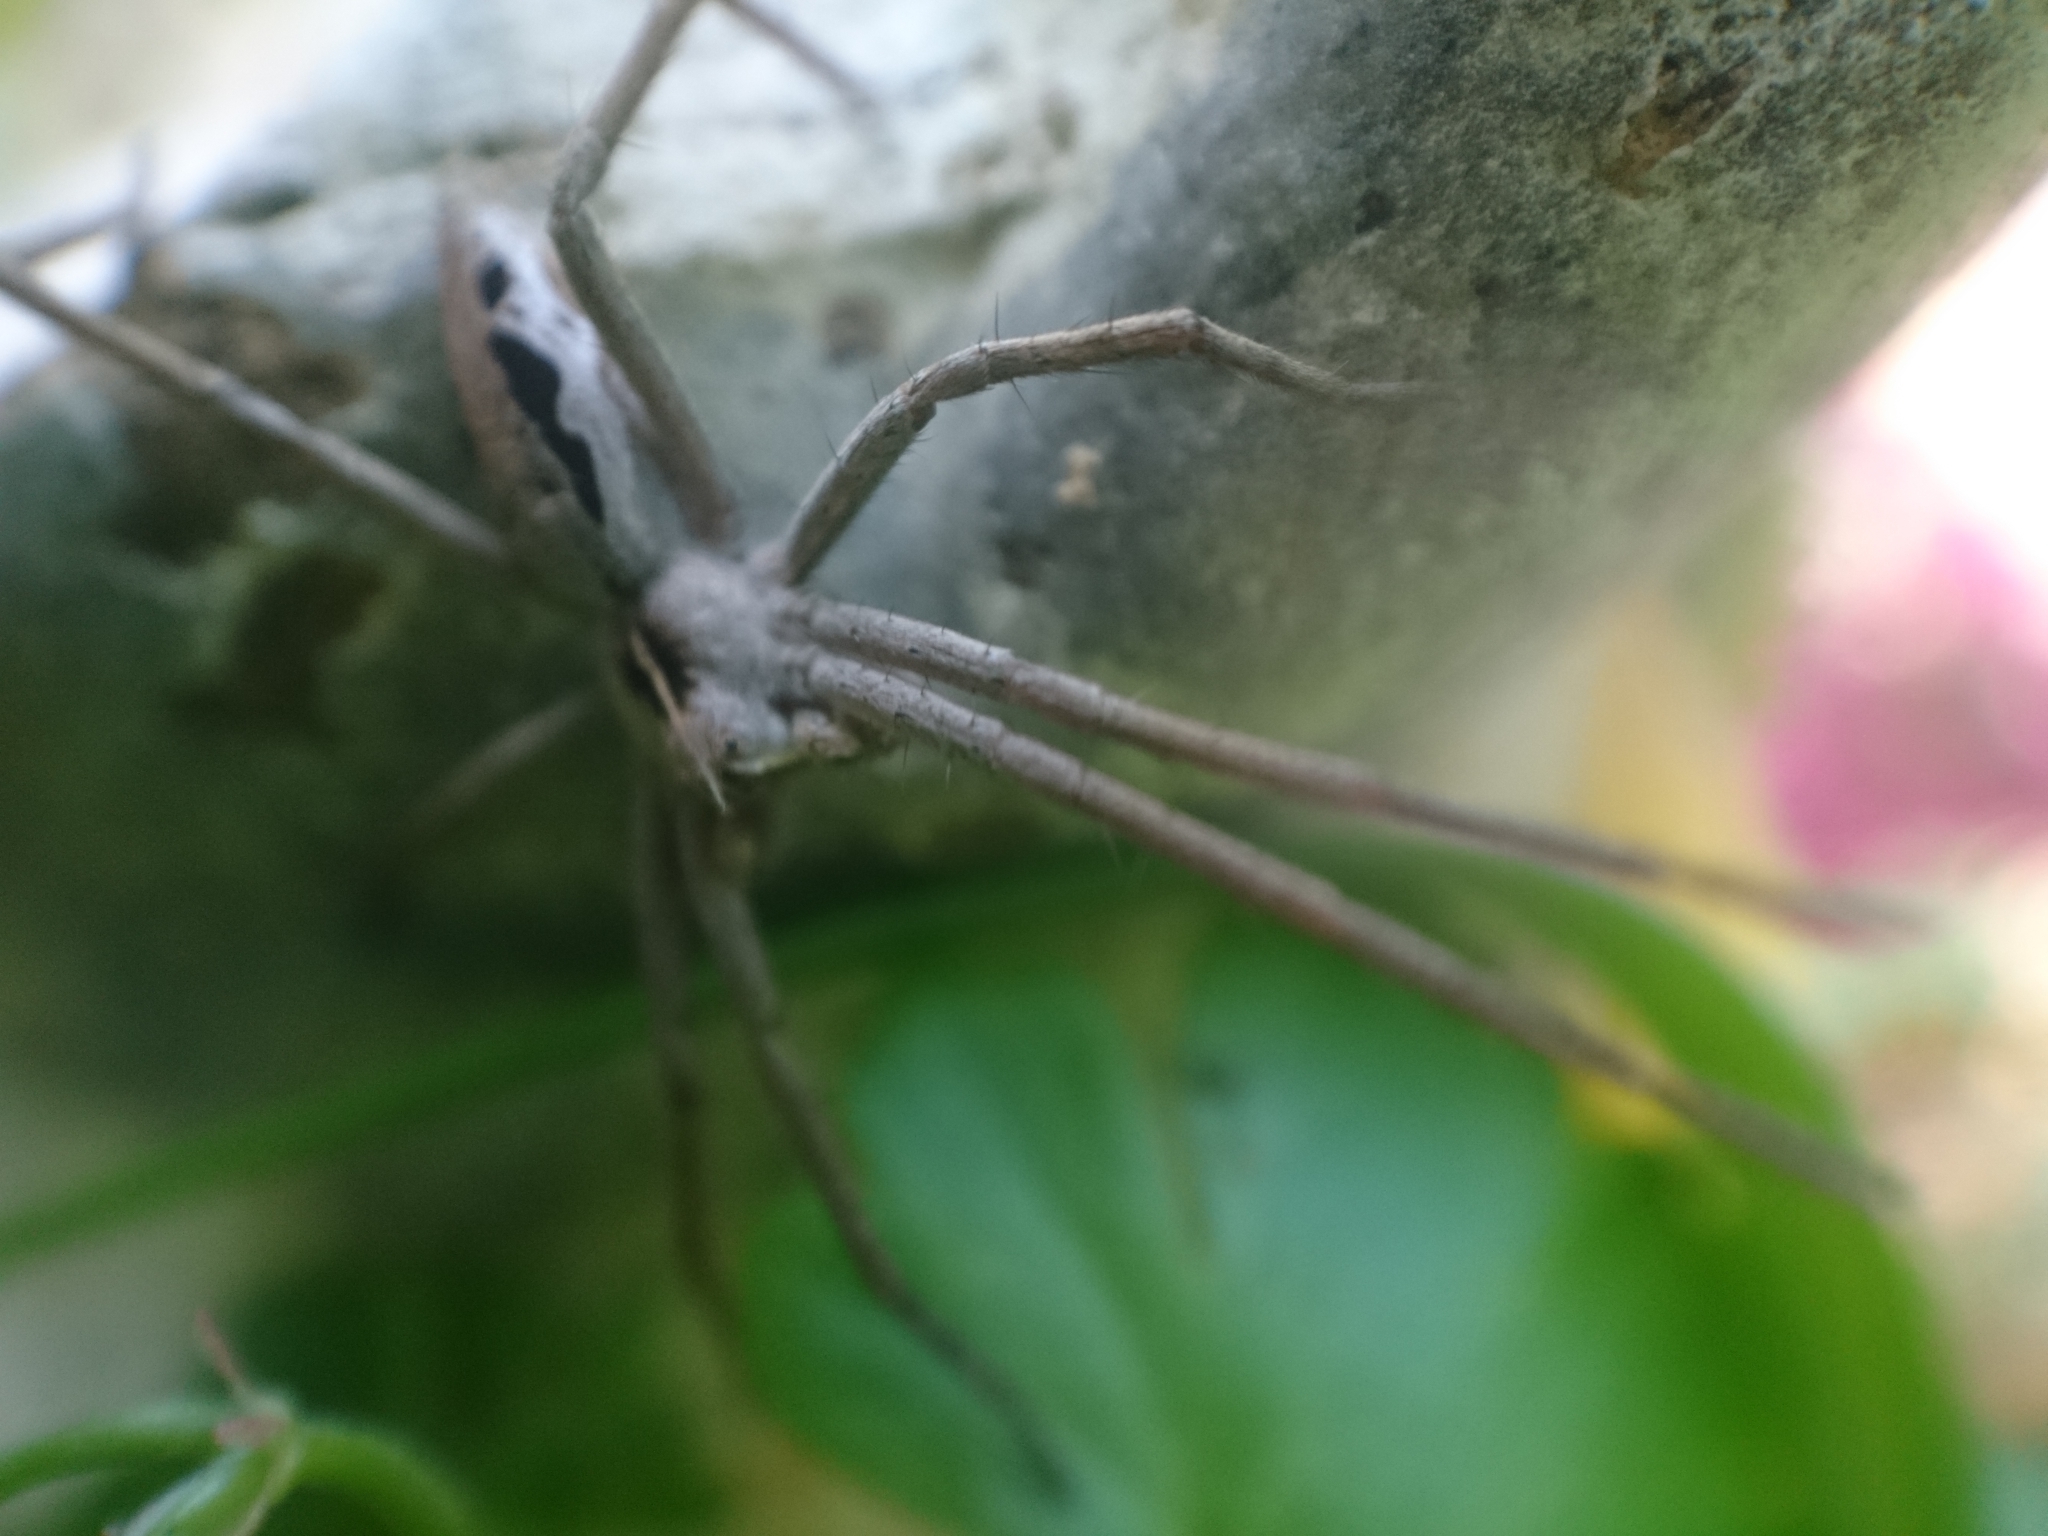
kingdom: Animalia
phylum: Arthropoda
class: Arachnida
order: Araneae
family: Pisauridae
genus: Pisaura
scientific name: Pisaura mirabilis
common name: Tent spider
